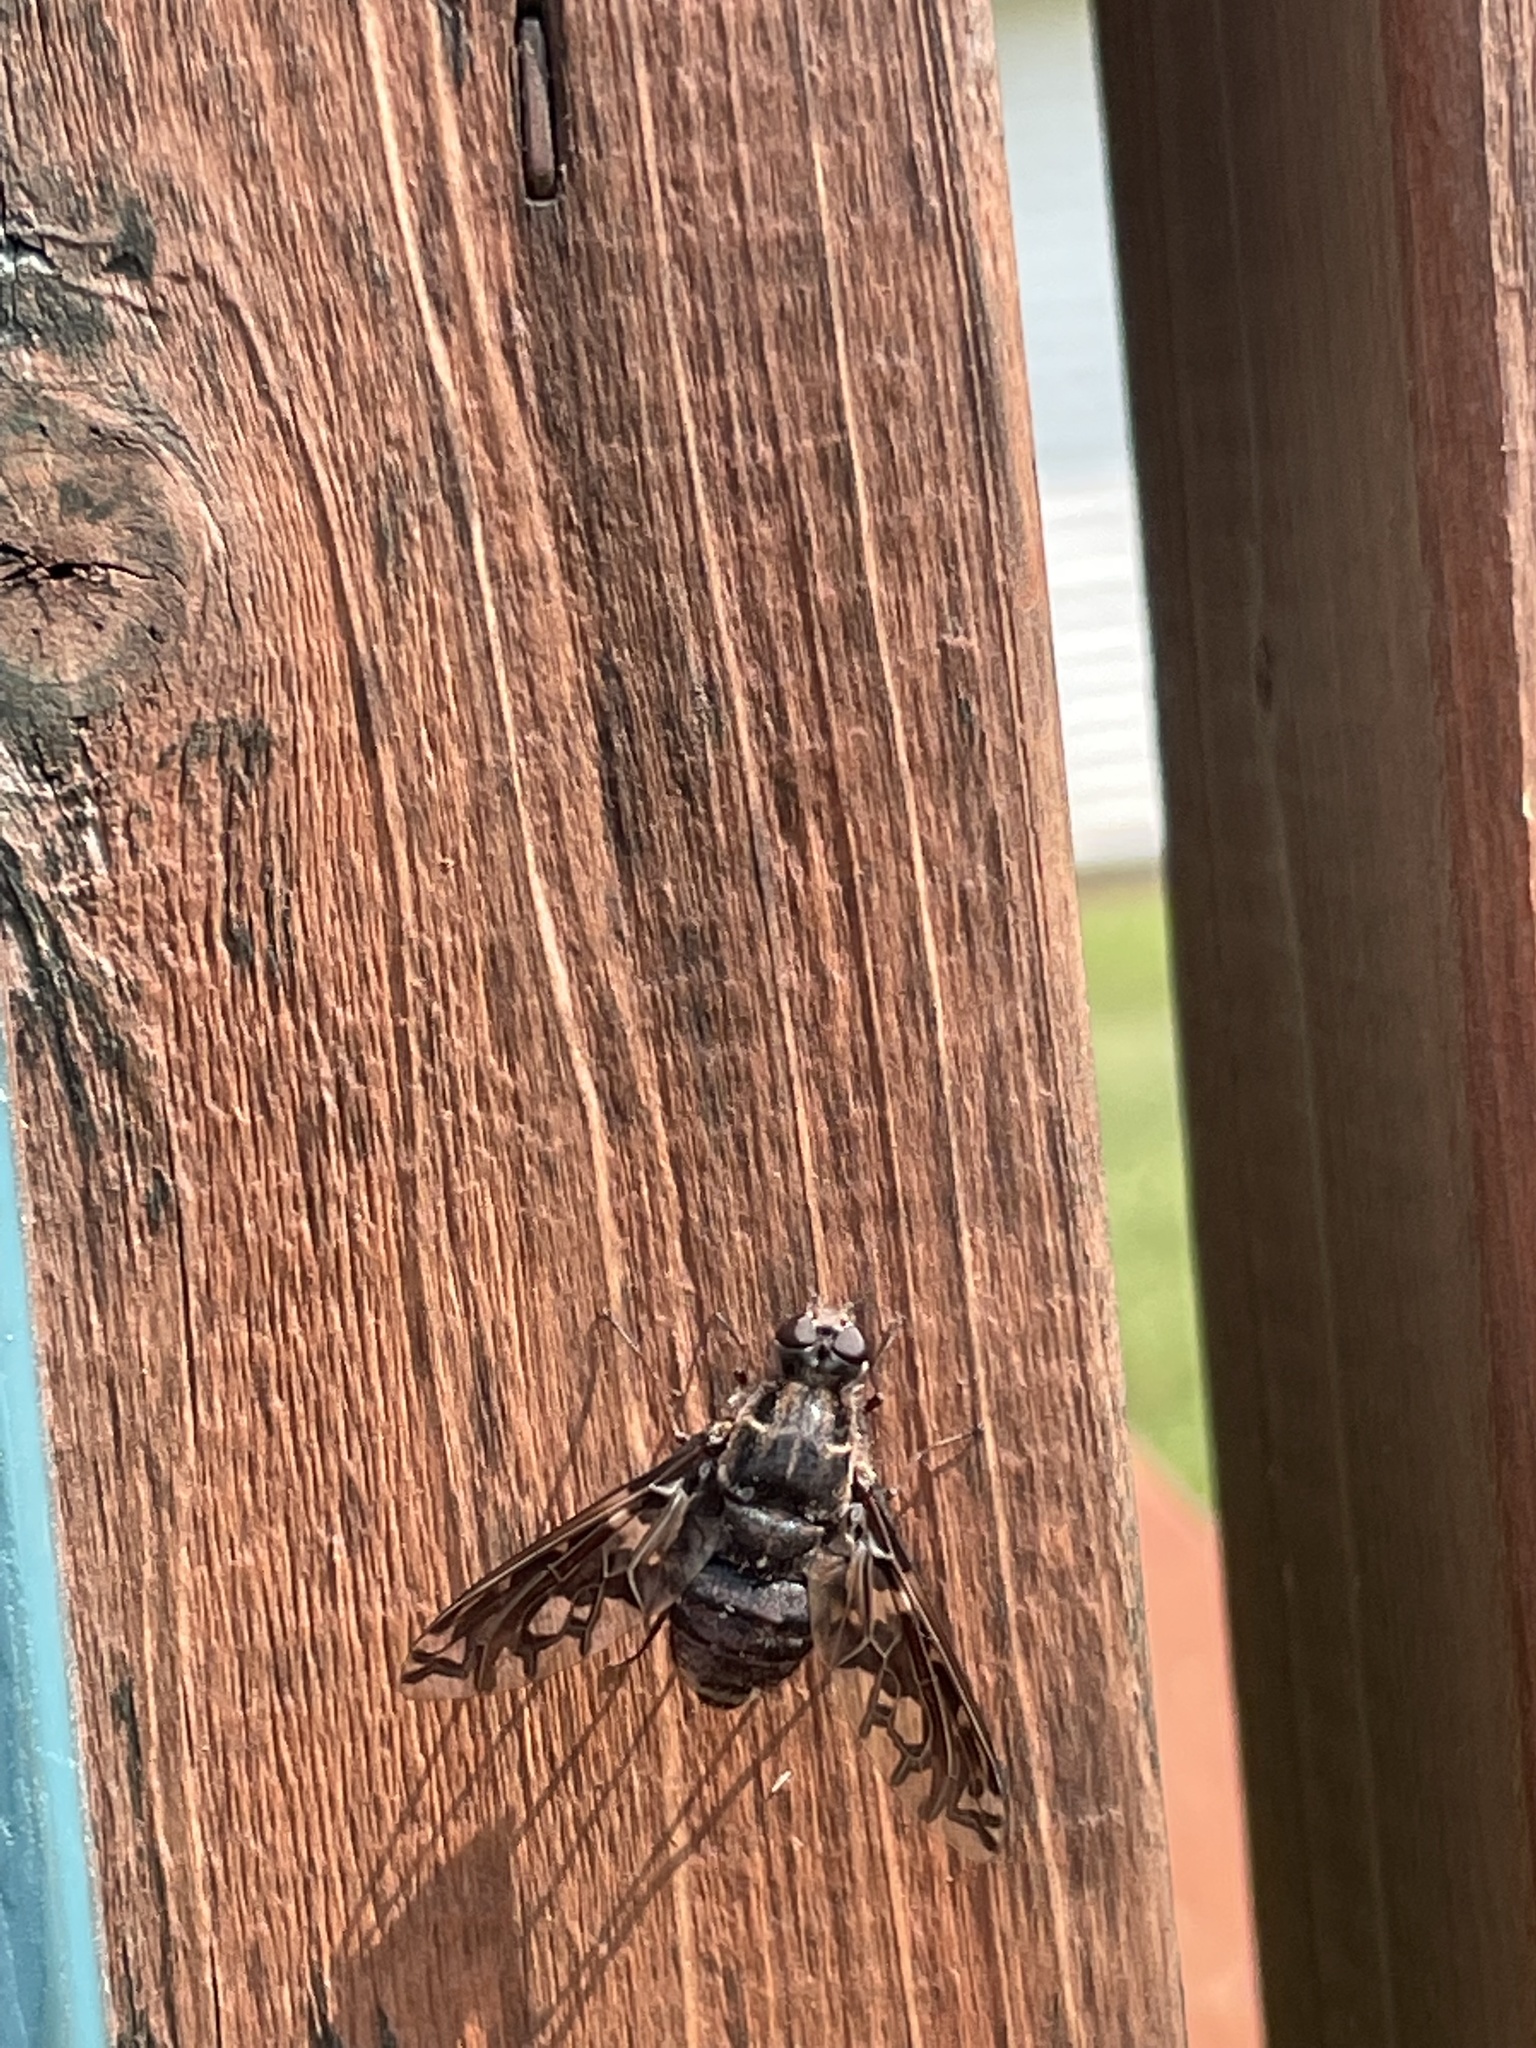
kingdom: Animalia
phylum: Arthropoda
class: Insecta
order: Diptera
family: Bombyliidae
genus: Xenox
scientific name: Xenox tigrinus
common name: Tiger bee fly
